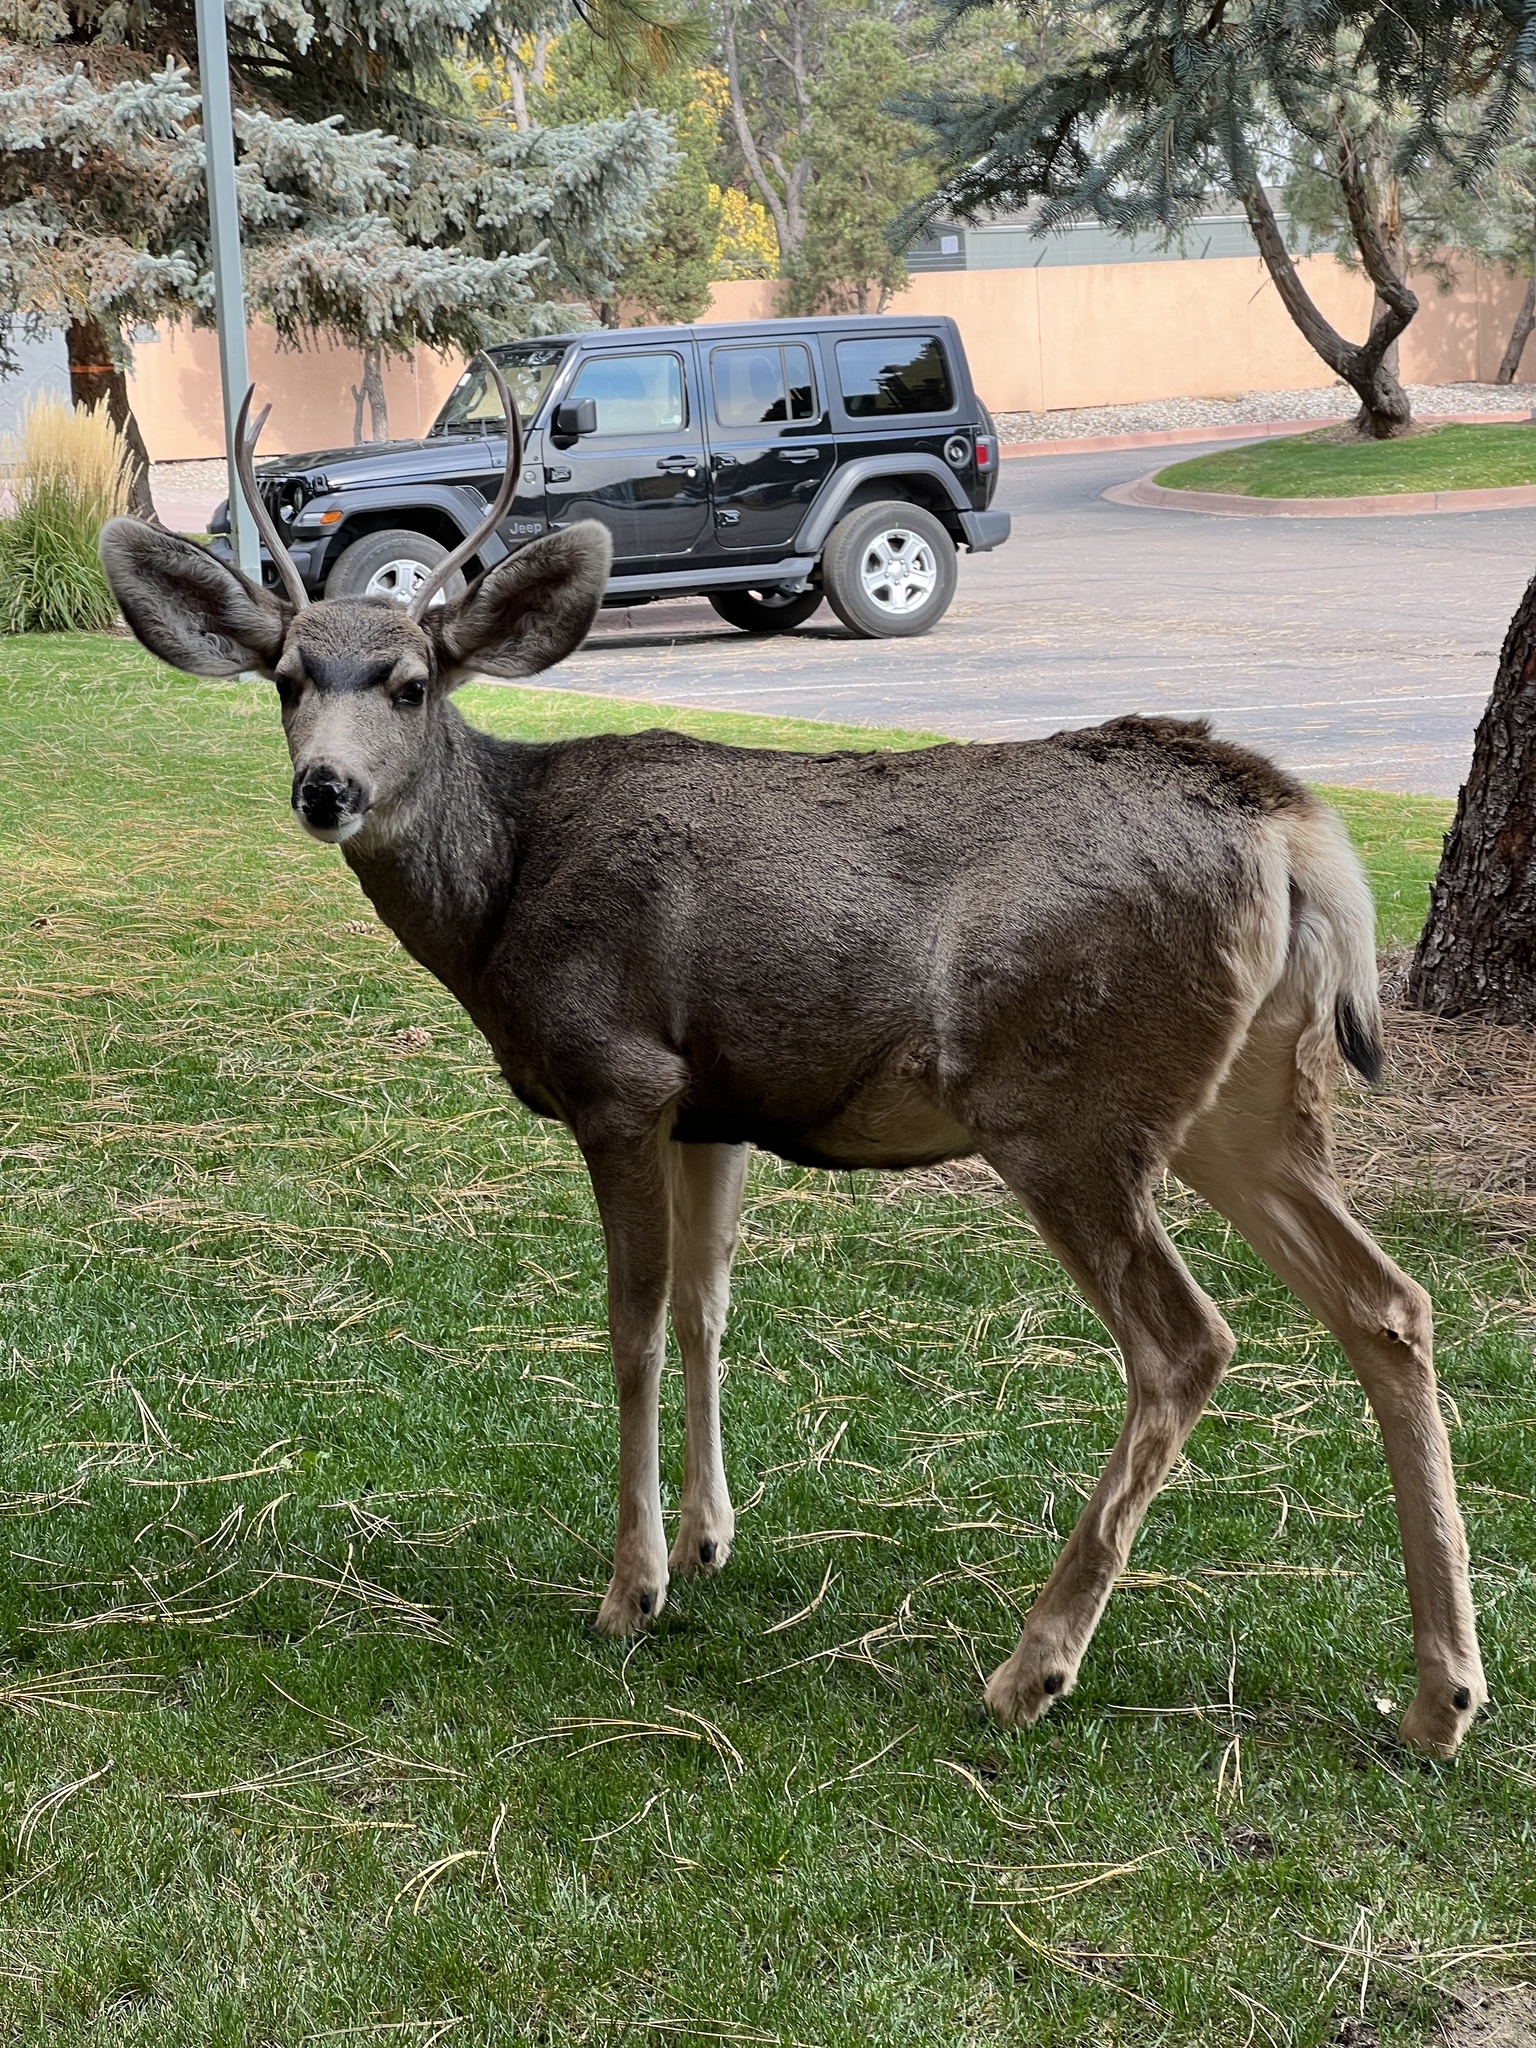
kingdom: Animalia
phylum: Chordata
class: Mammalia
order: Artiodactyla
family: Cervidae
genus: Odocoileus
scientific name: Odocoileus hemionus
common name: Mule deer
